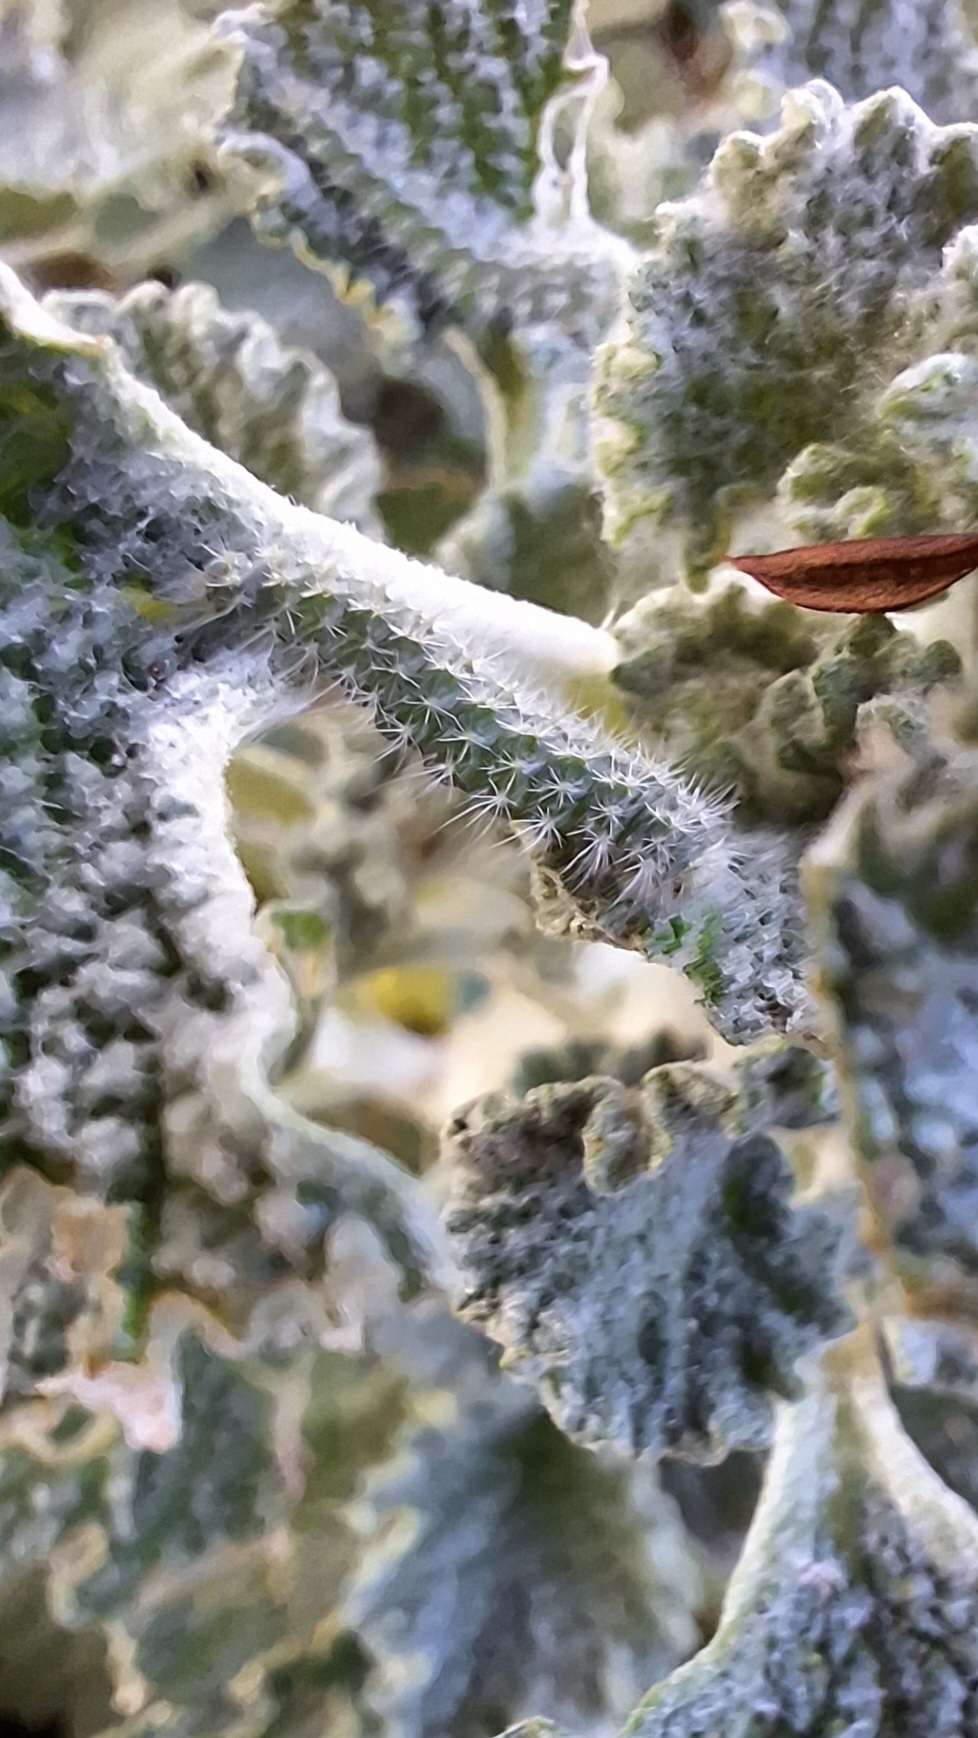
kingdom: Animalia
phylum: Arthropoda
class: Insecta
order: Lepidoptera
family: Pterophoridae
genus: Wheeleria
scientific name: Wheeleria spilodactylus
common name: Horehound plume
